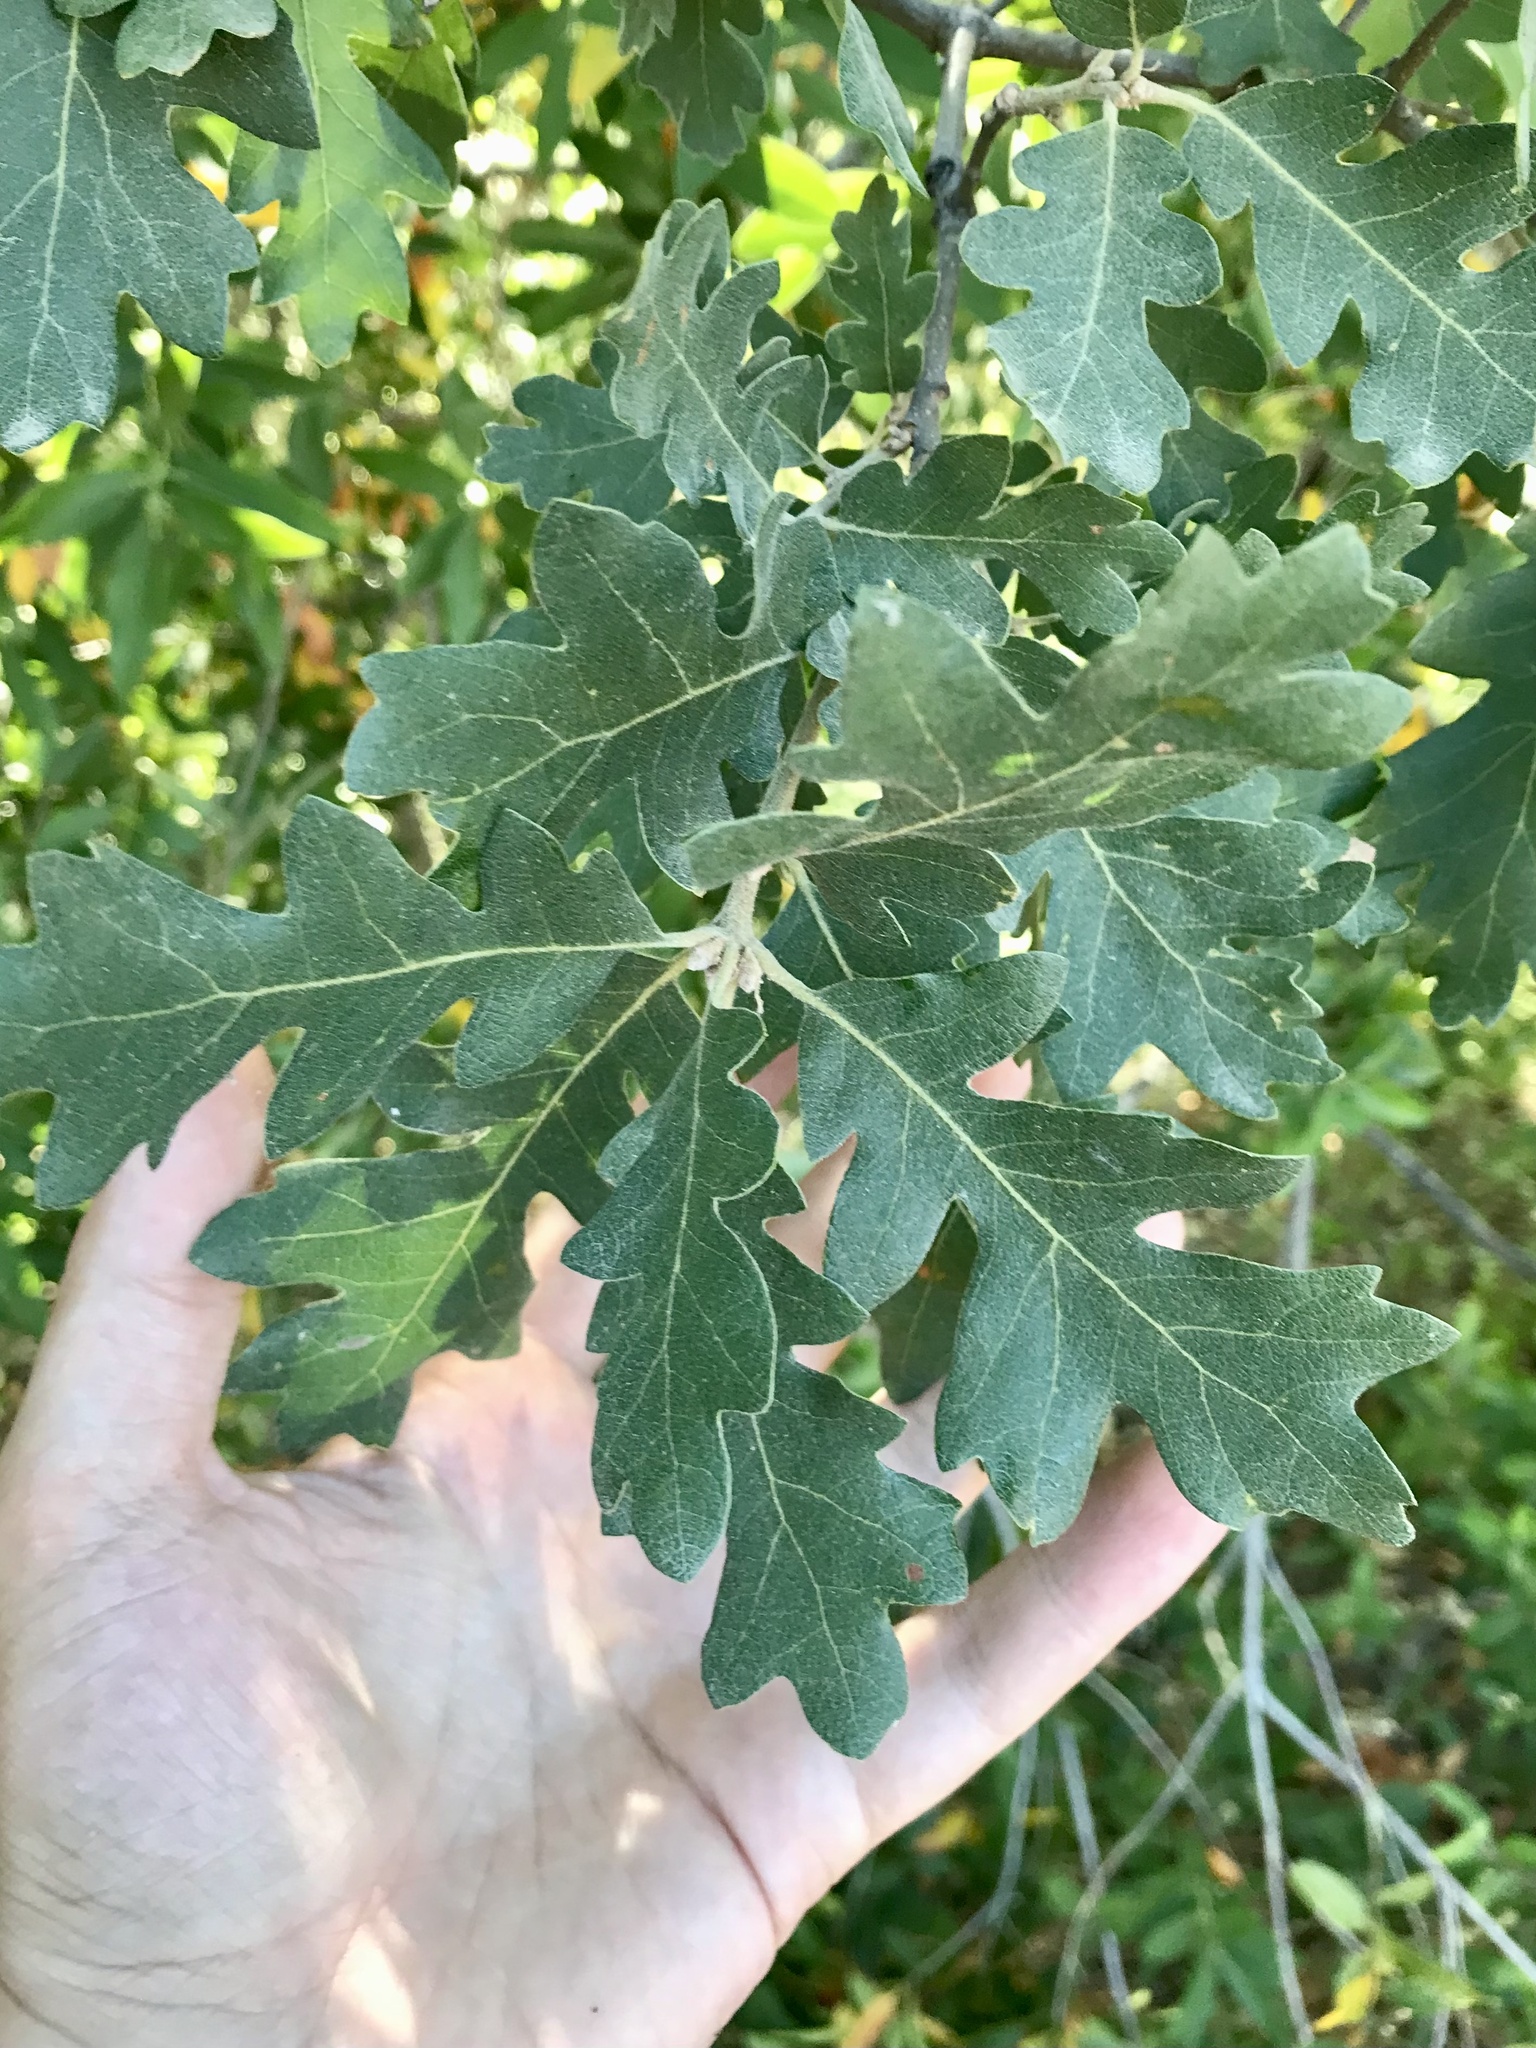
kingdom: Plantae
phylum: Tracheophyta
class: Magnoliopsida
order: Fagales
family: Fagaceae
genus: Quercus
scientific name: Quercus lobata
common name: Valley oak
